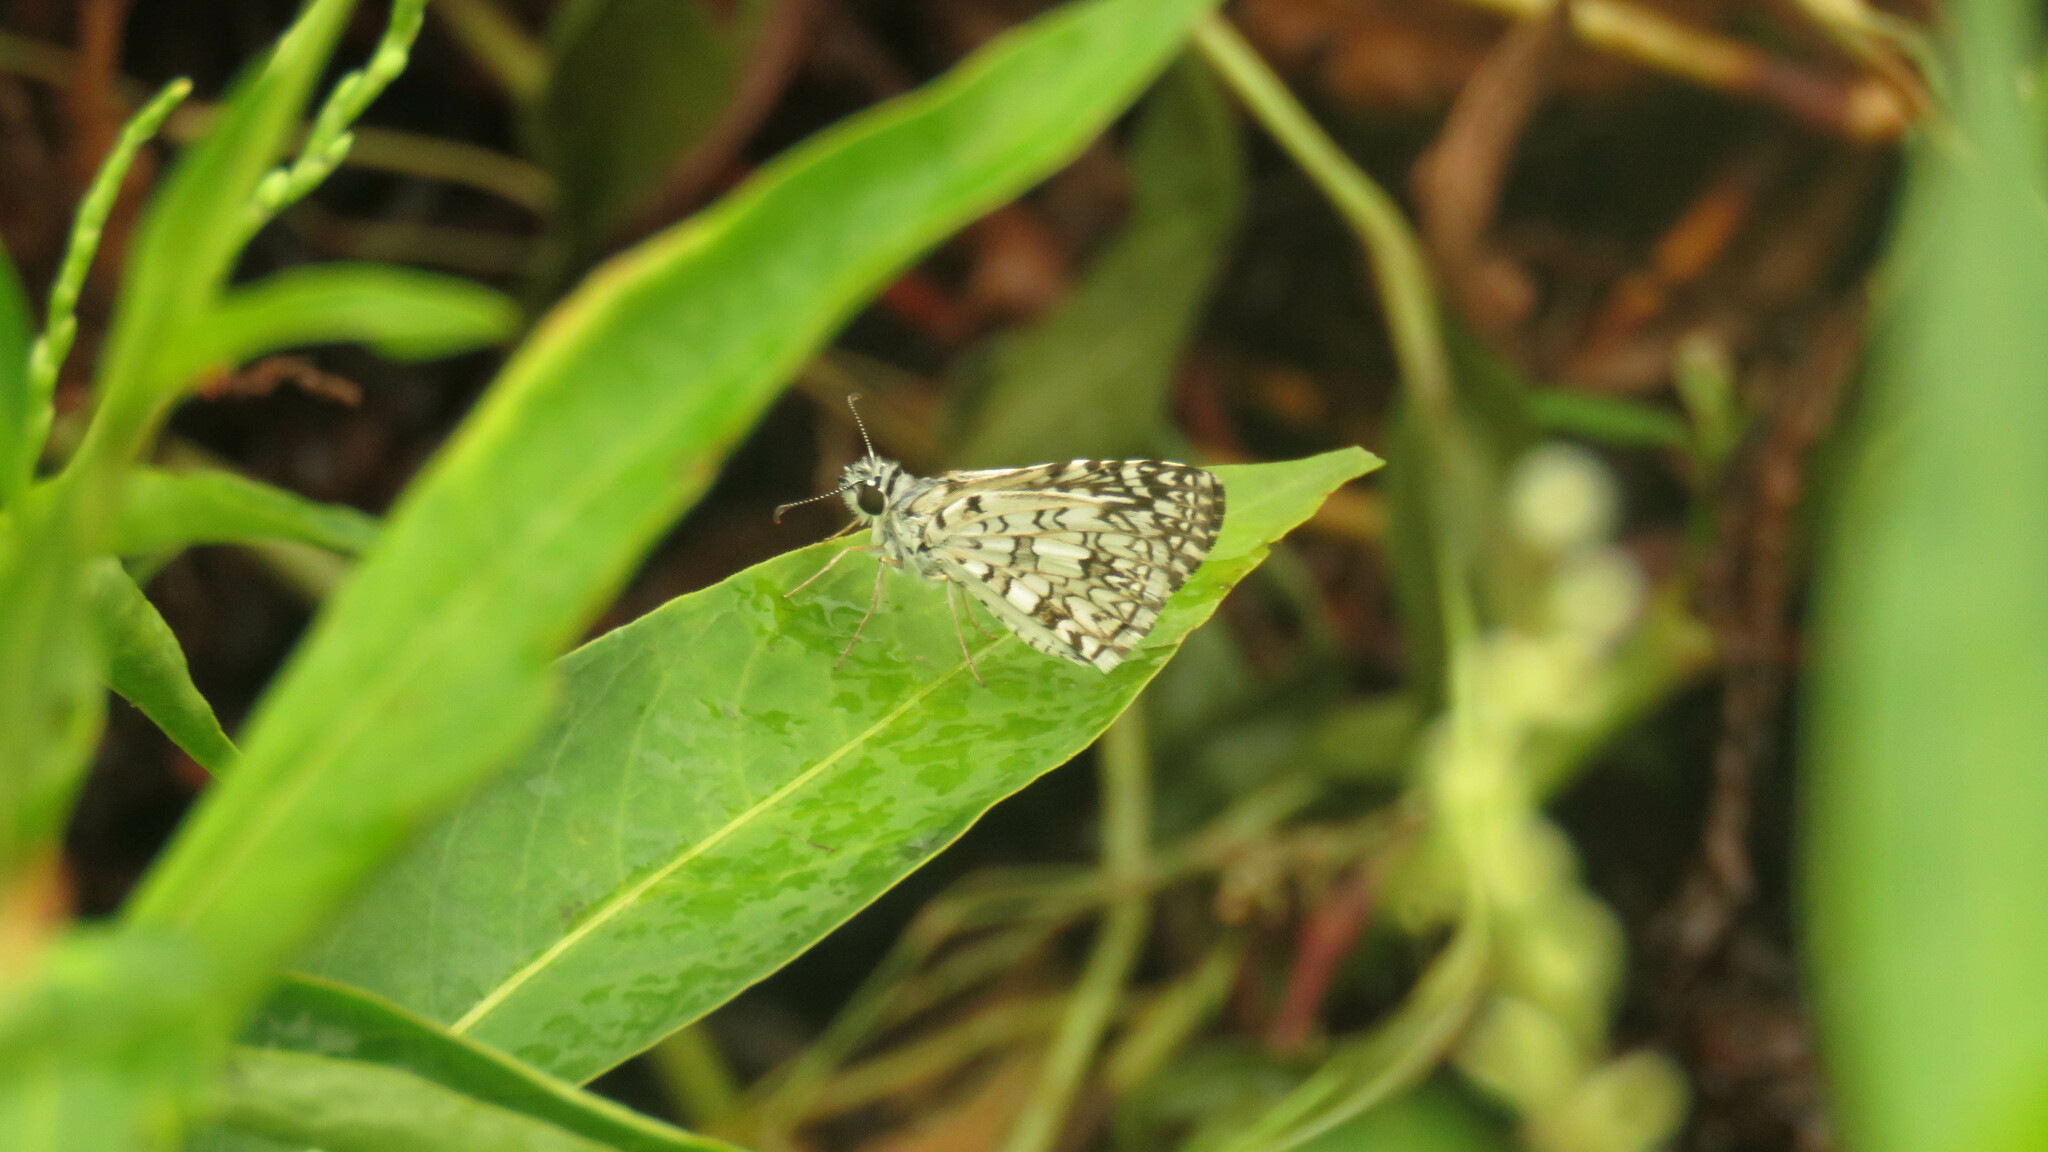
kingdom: Animalia
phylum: Arthropoda
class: Insecta
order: Lepidoptera
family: Hesperiidae
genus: Pyrgus
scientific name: Pyrgus oileus
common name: Tropical checkered-skipper
